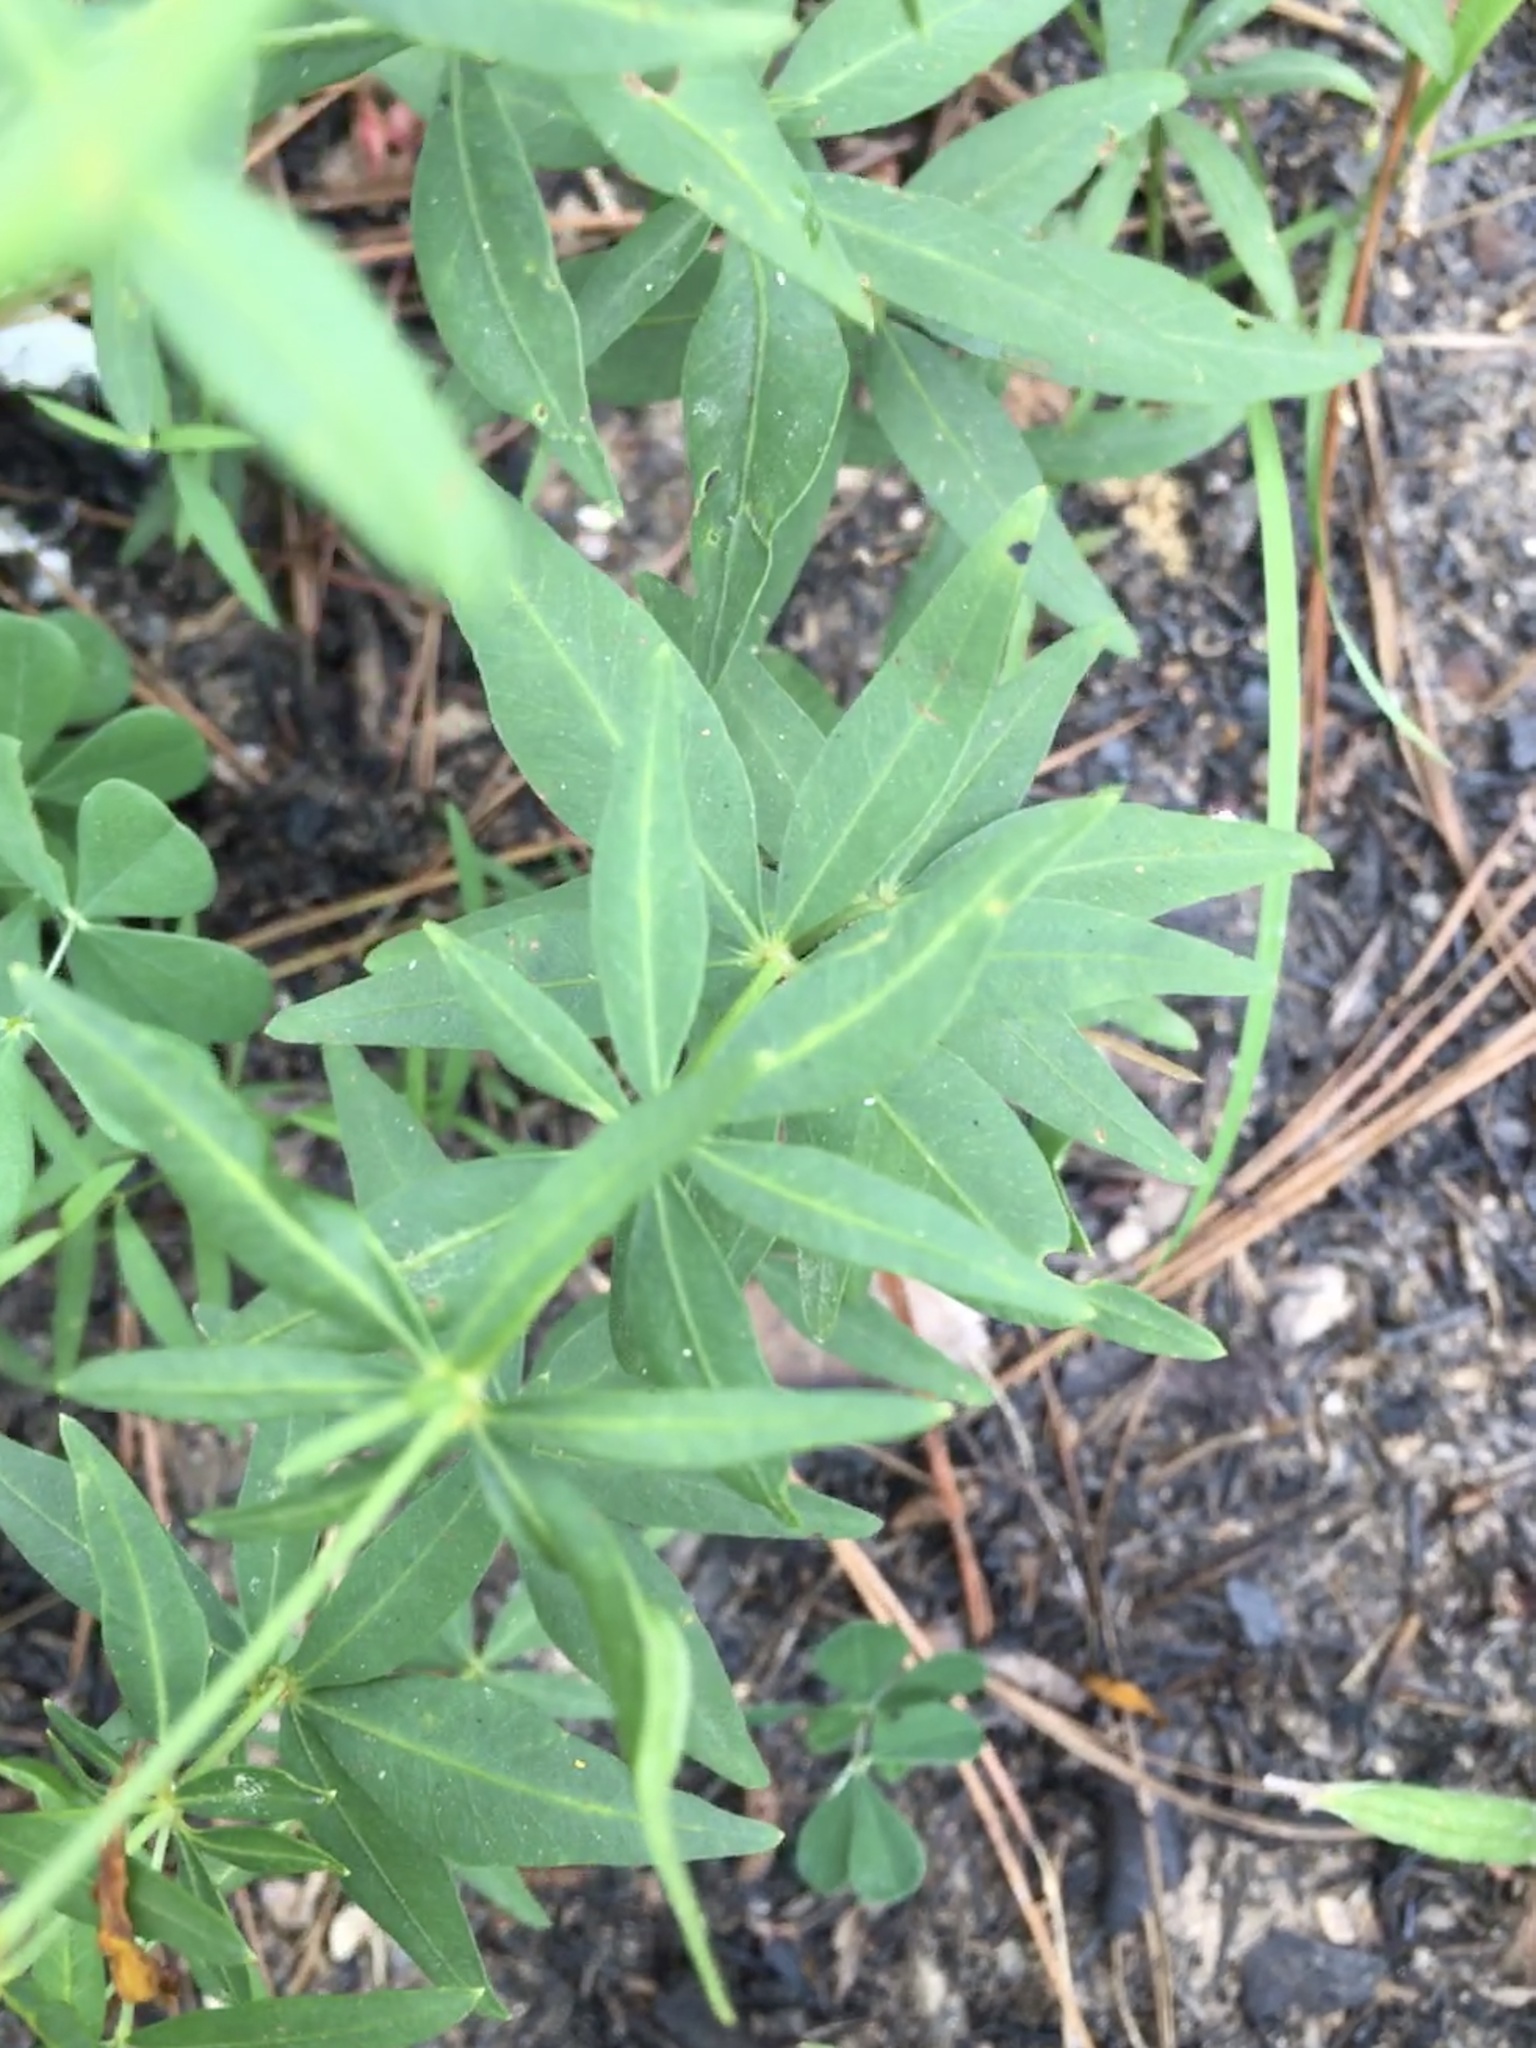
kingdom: Plantae
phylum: Tracheophyta
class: Magnoliopsida
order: Asterales
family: Asteraceae
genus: Coreopsis
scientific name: Coreopsis major
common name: Forest tickseed
